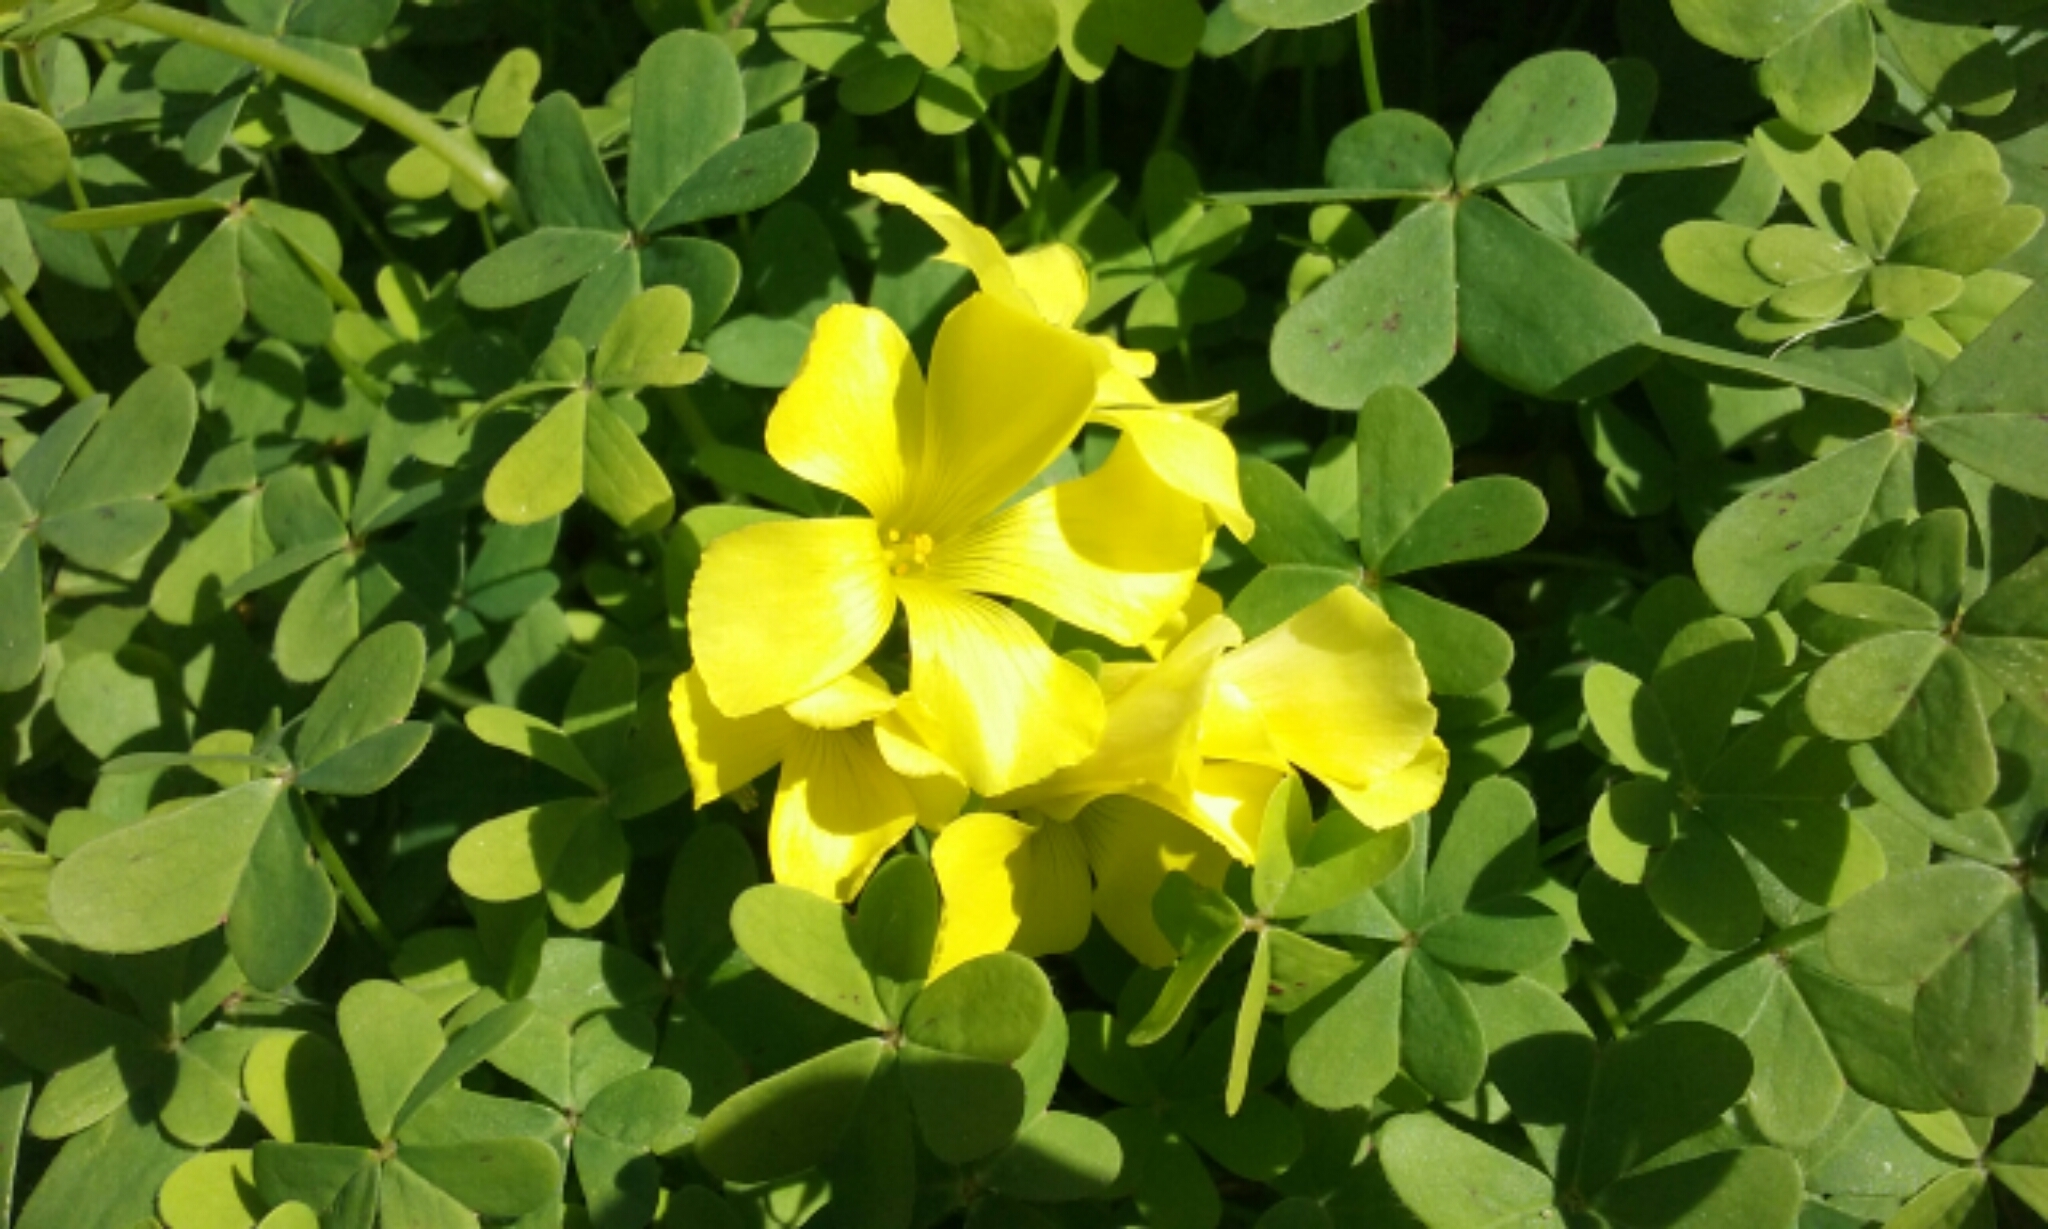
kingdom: Plantae
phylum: Tracheophyta
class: Magnoliopsida
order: Oxalidales
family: Oxalidaceae
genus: Oxalis
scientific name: Oxalis pes-caprae
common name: Bermuda-buttercup
